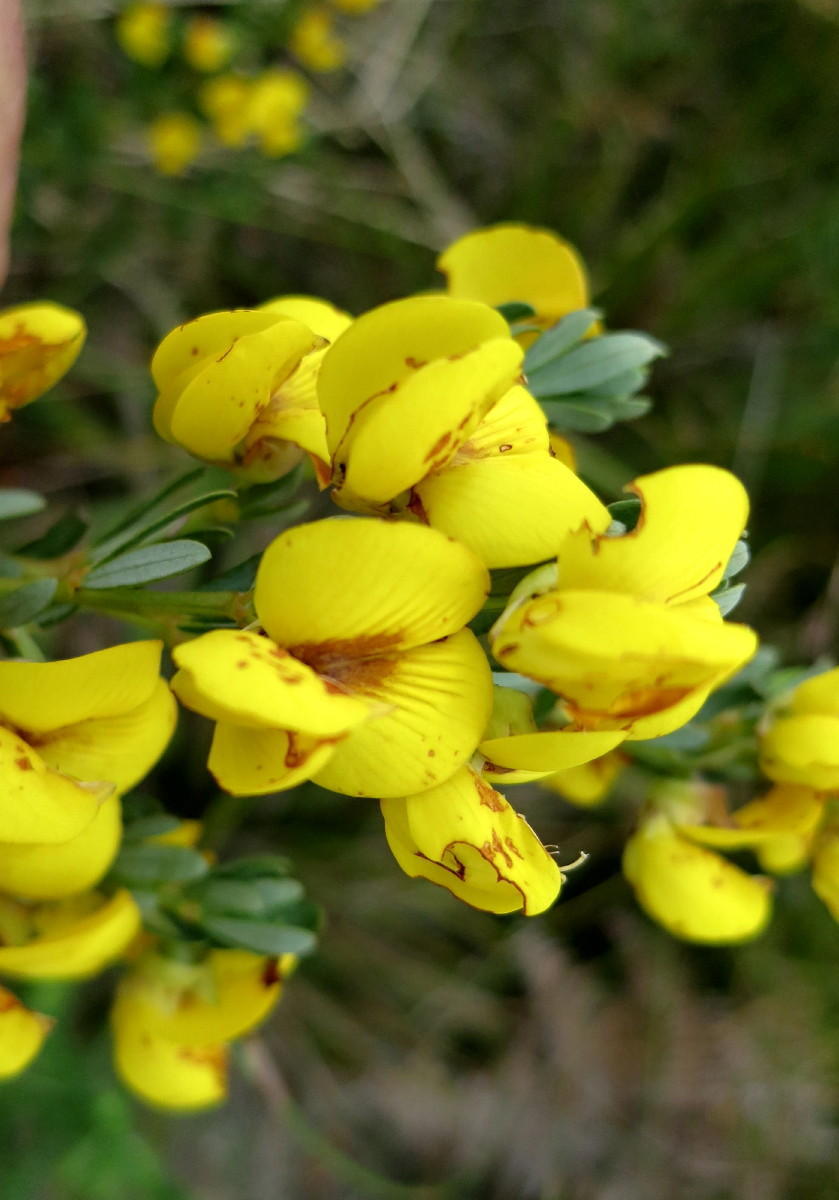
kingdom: Plantae
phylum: Tracheophyta
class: Magnoliopsida
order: Fabales
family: Fabaceae
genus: Cyclopia
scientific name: Cyclopia subternata
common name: Honeybush tea
